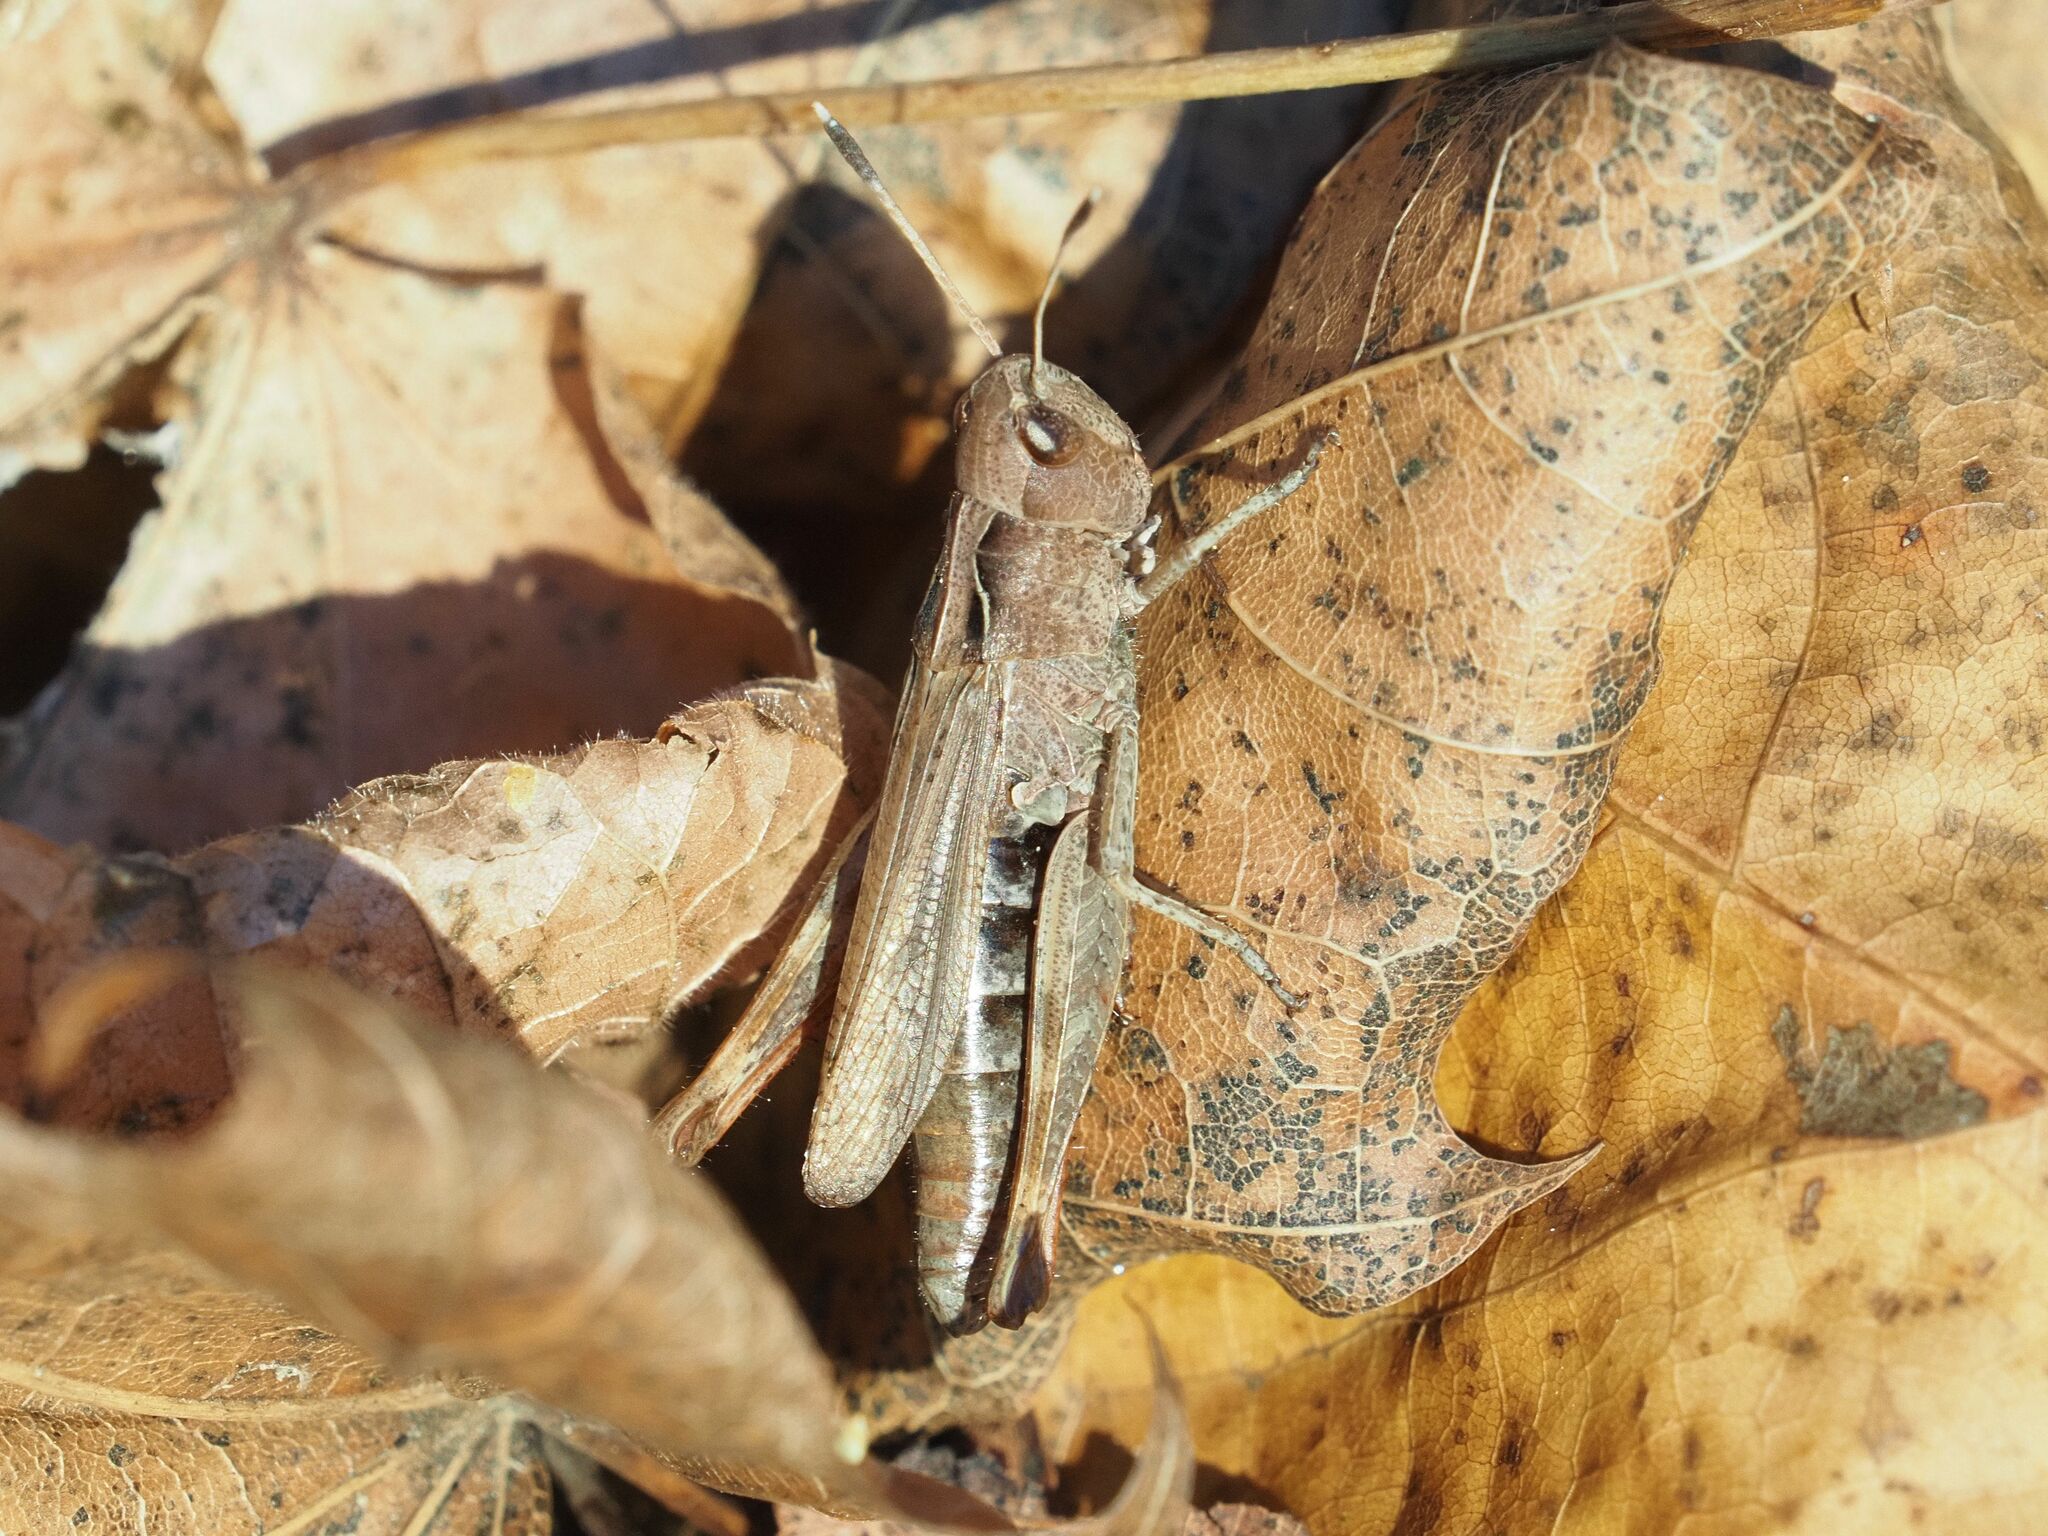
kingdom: Animalia
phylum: Arthropoda
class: Insecta
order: Orthoptera
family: Acrididae
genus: Gomphocerippus
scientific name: Gomphocerippus rufus
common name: Rufous grasshopper
